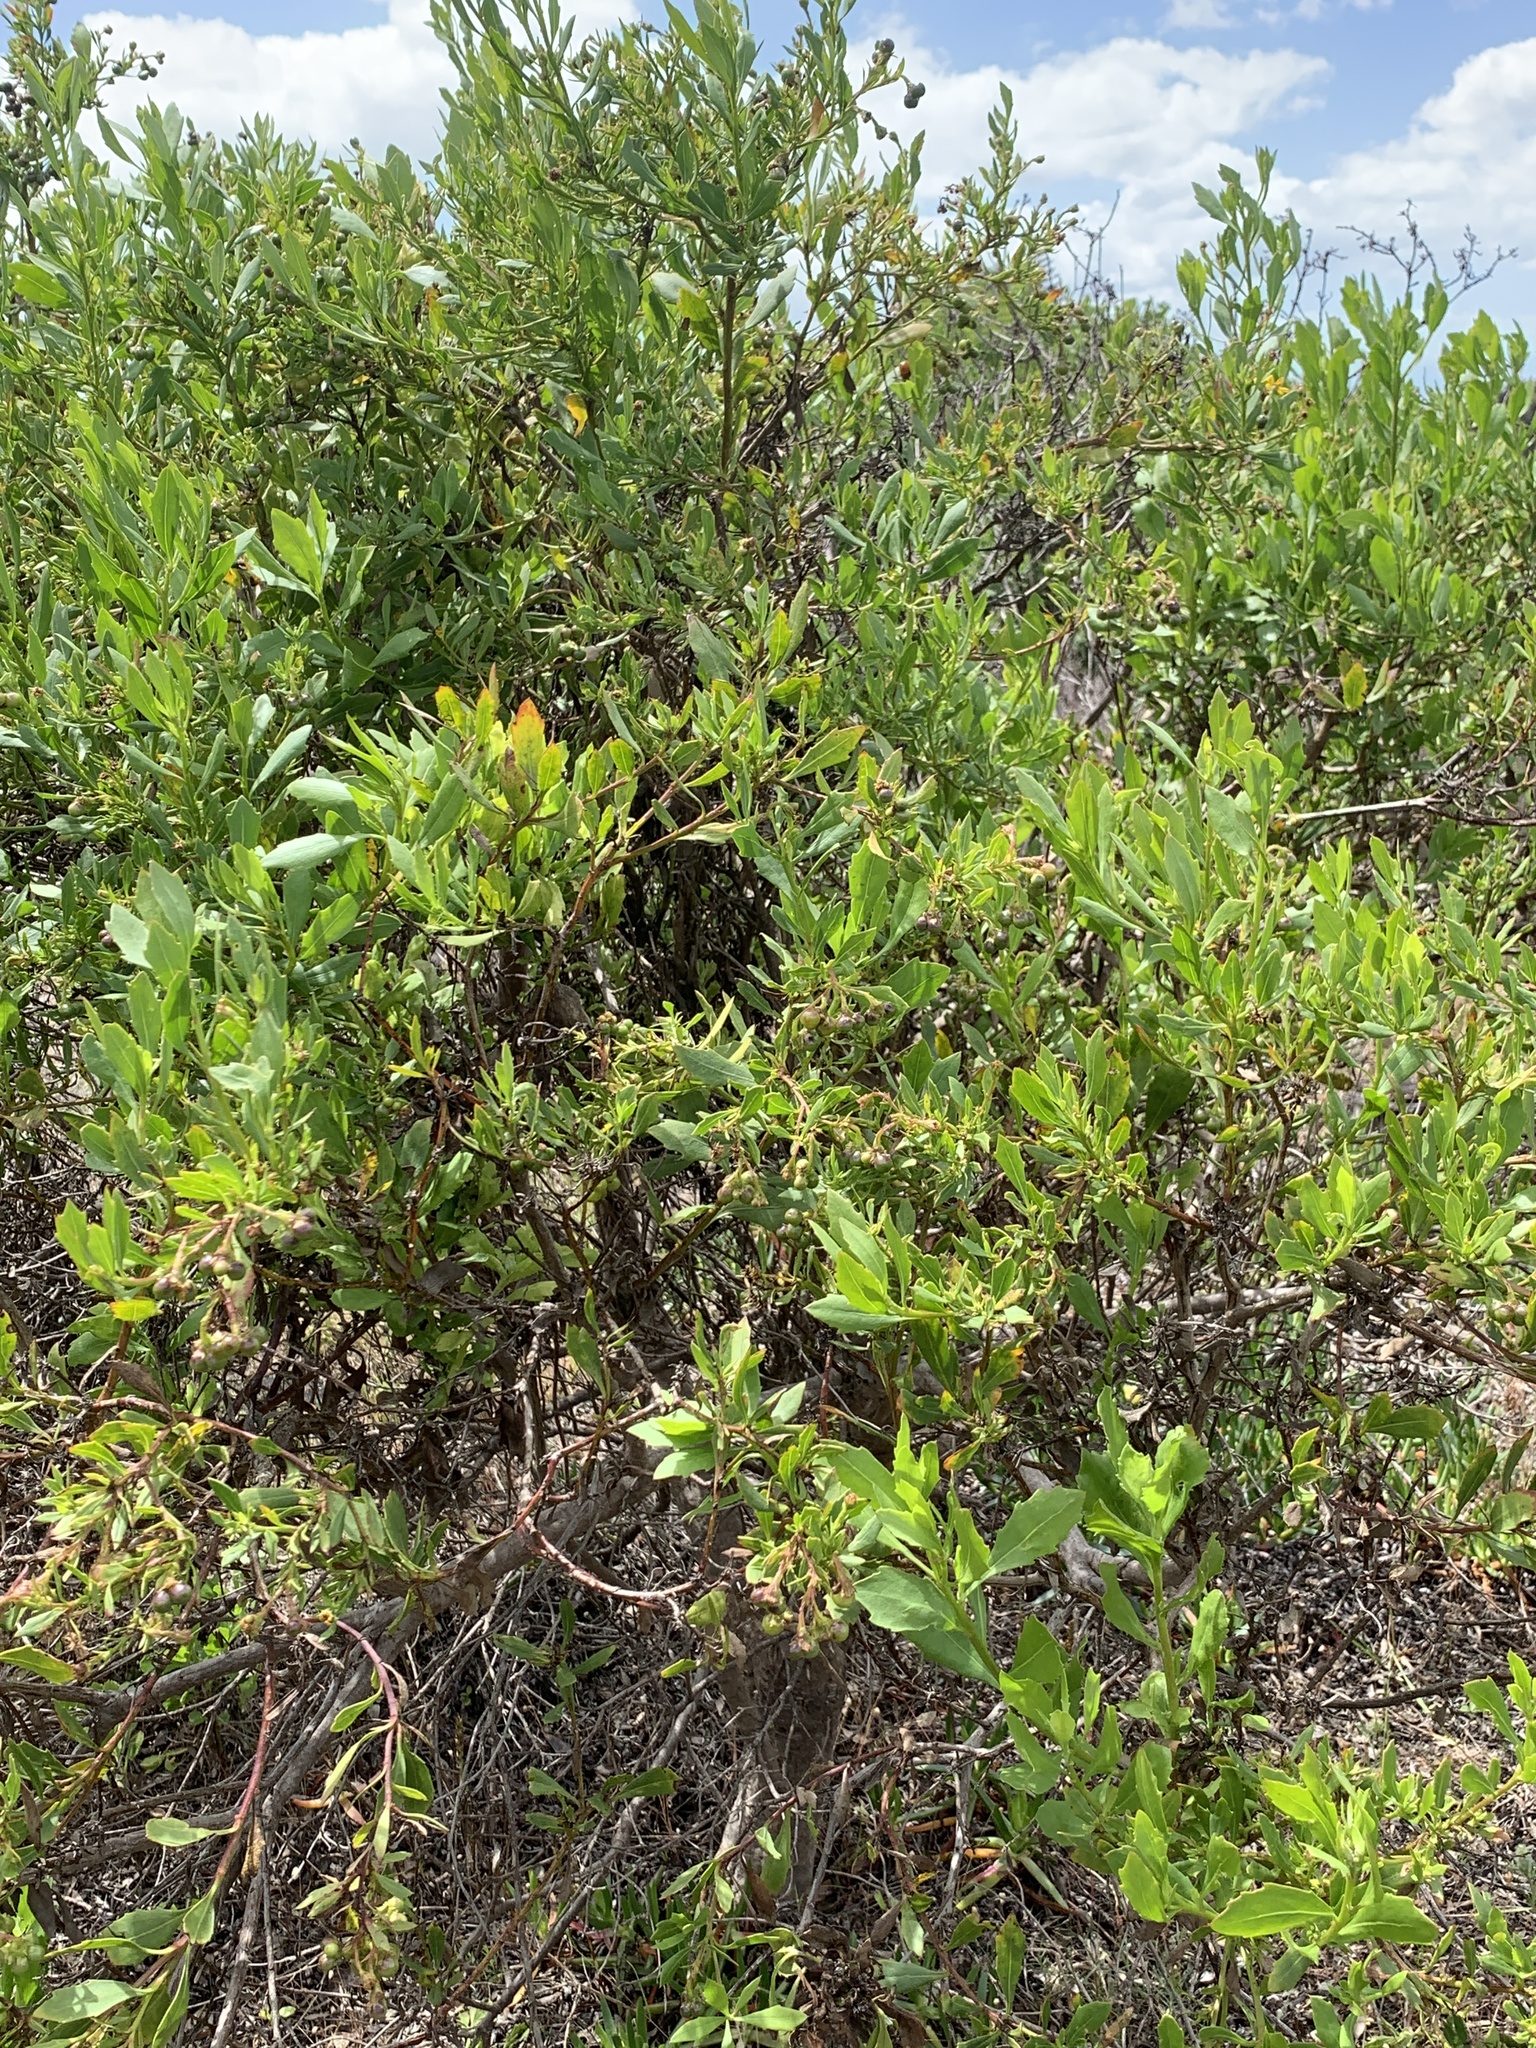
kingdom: Plantae
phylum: Tracheophyta
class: Magnoliopsida
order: Asterales
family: Asteraceae
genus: Osteospermum
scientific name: Osteospermum moniliferum
